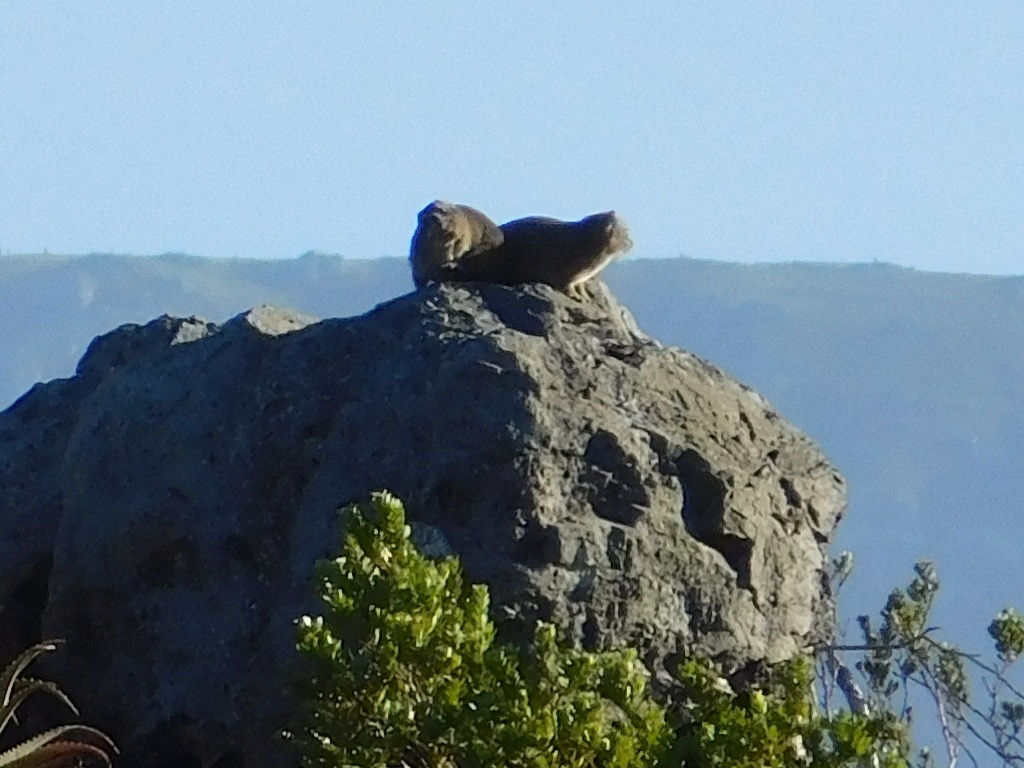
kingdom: Animalia
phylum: Chordata
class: Mammalia
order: Hyracoidea
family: Procaviidae
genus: Procavia
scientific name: Procavia capensis
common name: Rock hyrax
